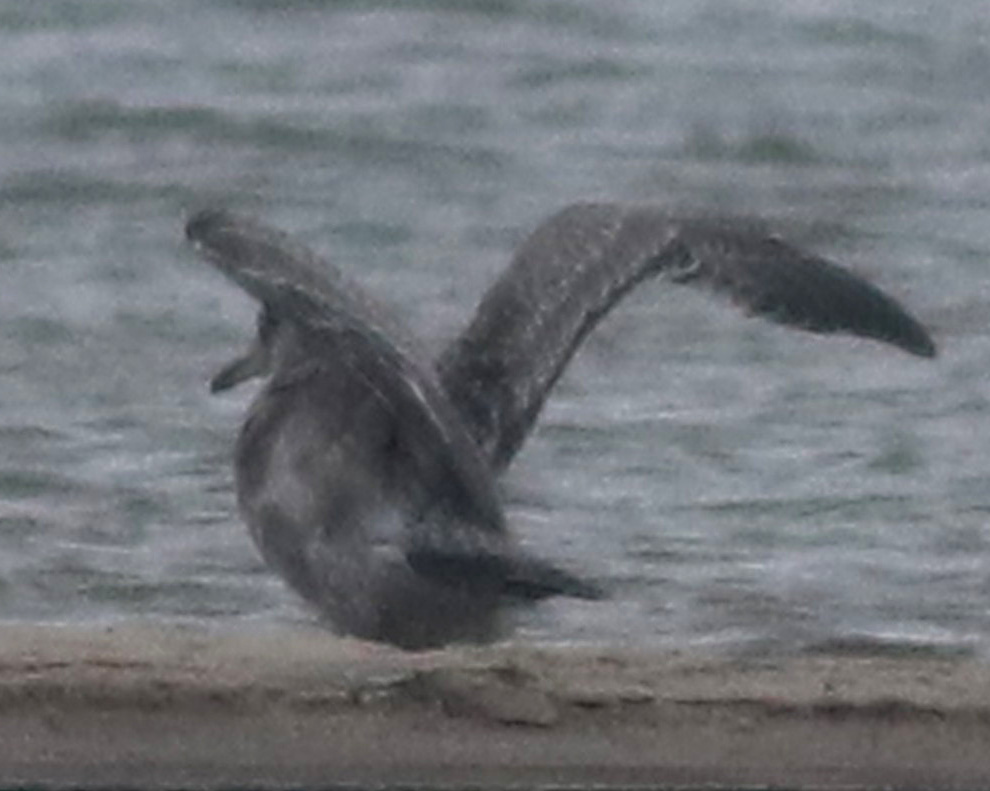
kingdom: Animalia
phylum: Chordata
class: Aves
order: Charadriiformes
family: Laridae
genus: Larus
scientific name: Larus smithsonianus
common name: American herring gull
